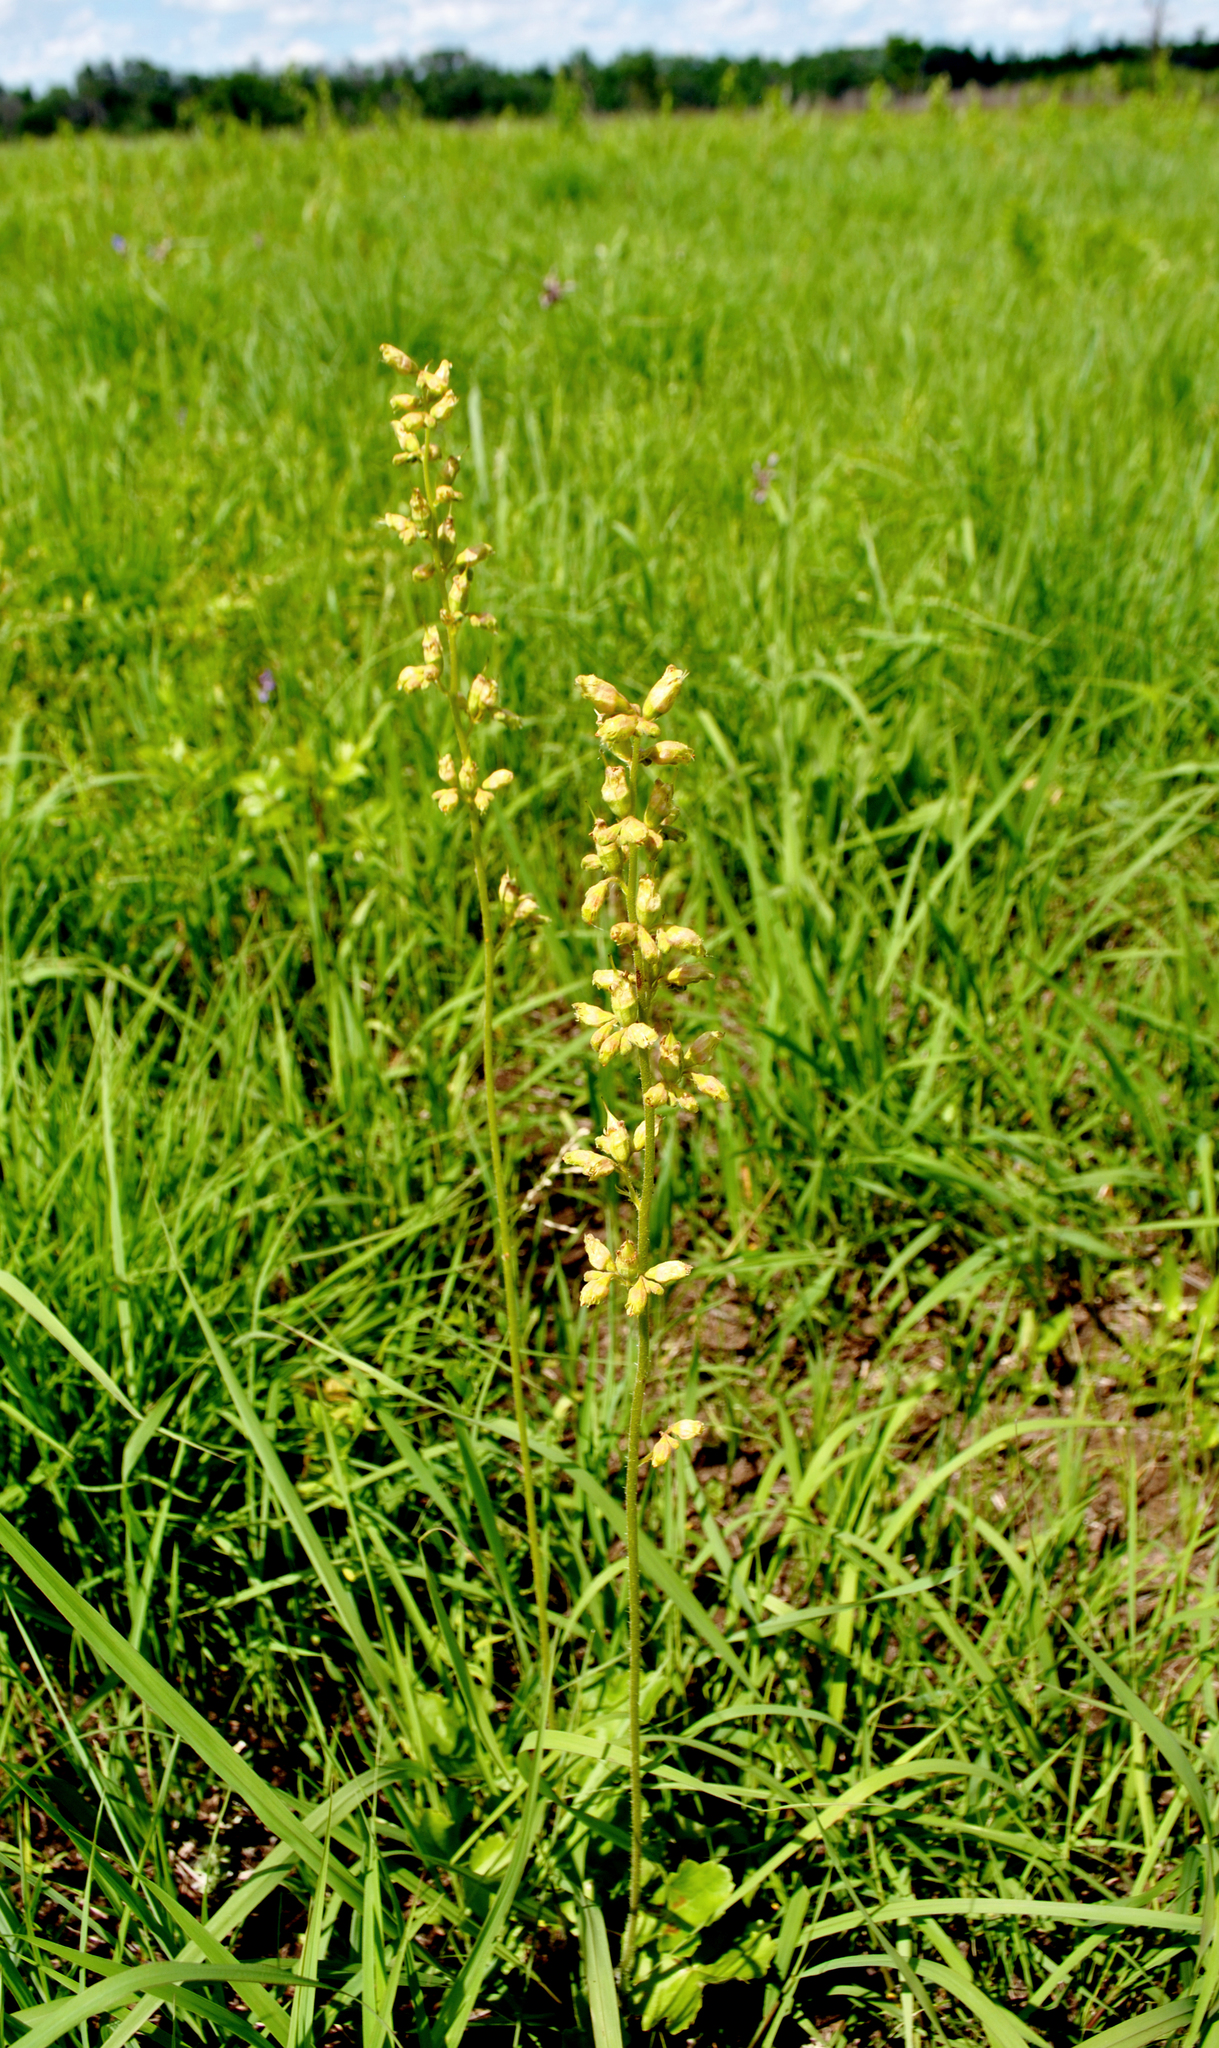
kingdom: Plantae
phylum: Tracheophyta
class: Magnoliopsida
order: Saxifragales
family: Saxifragaceae
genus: Heuchera
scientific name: Heuchera richardsonii
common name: Richardson's alumroot
